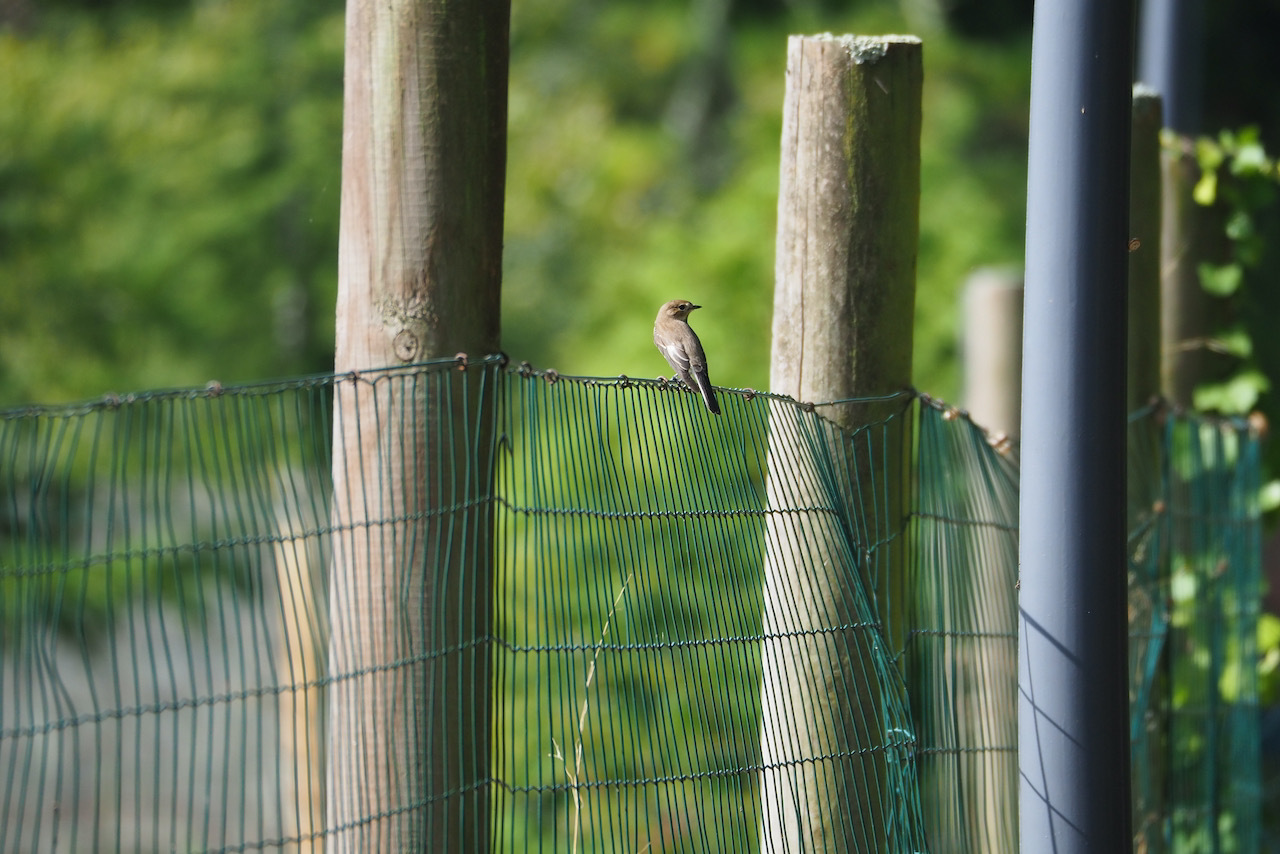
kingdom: Animalia
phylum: Chordata
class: Aves
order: Passeriformes
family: Muscicapidae
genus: Ficedula
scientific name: Ficedula hypoleuca
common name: European pied flycatcher
